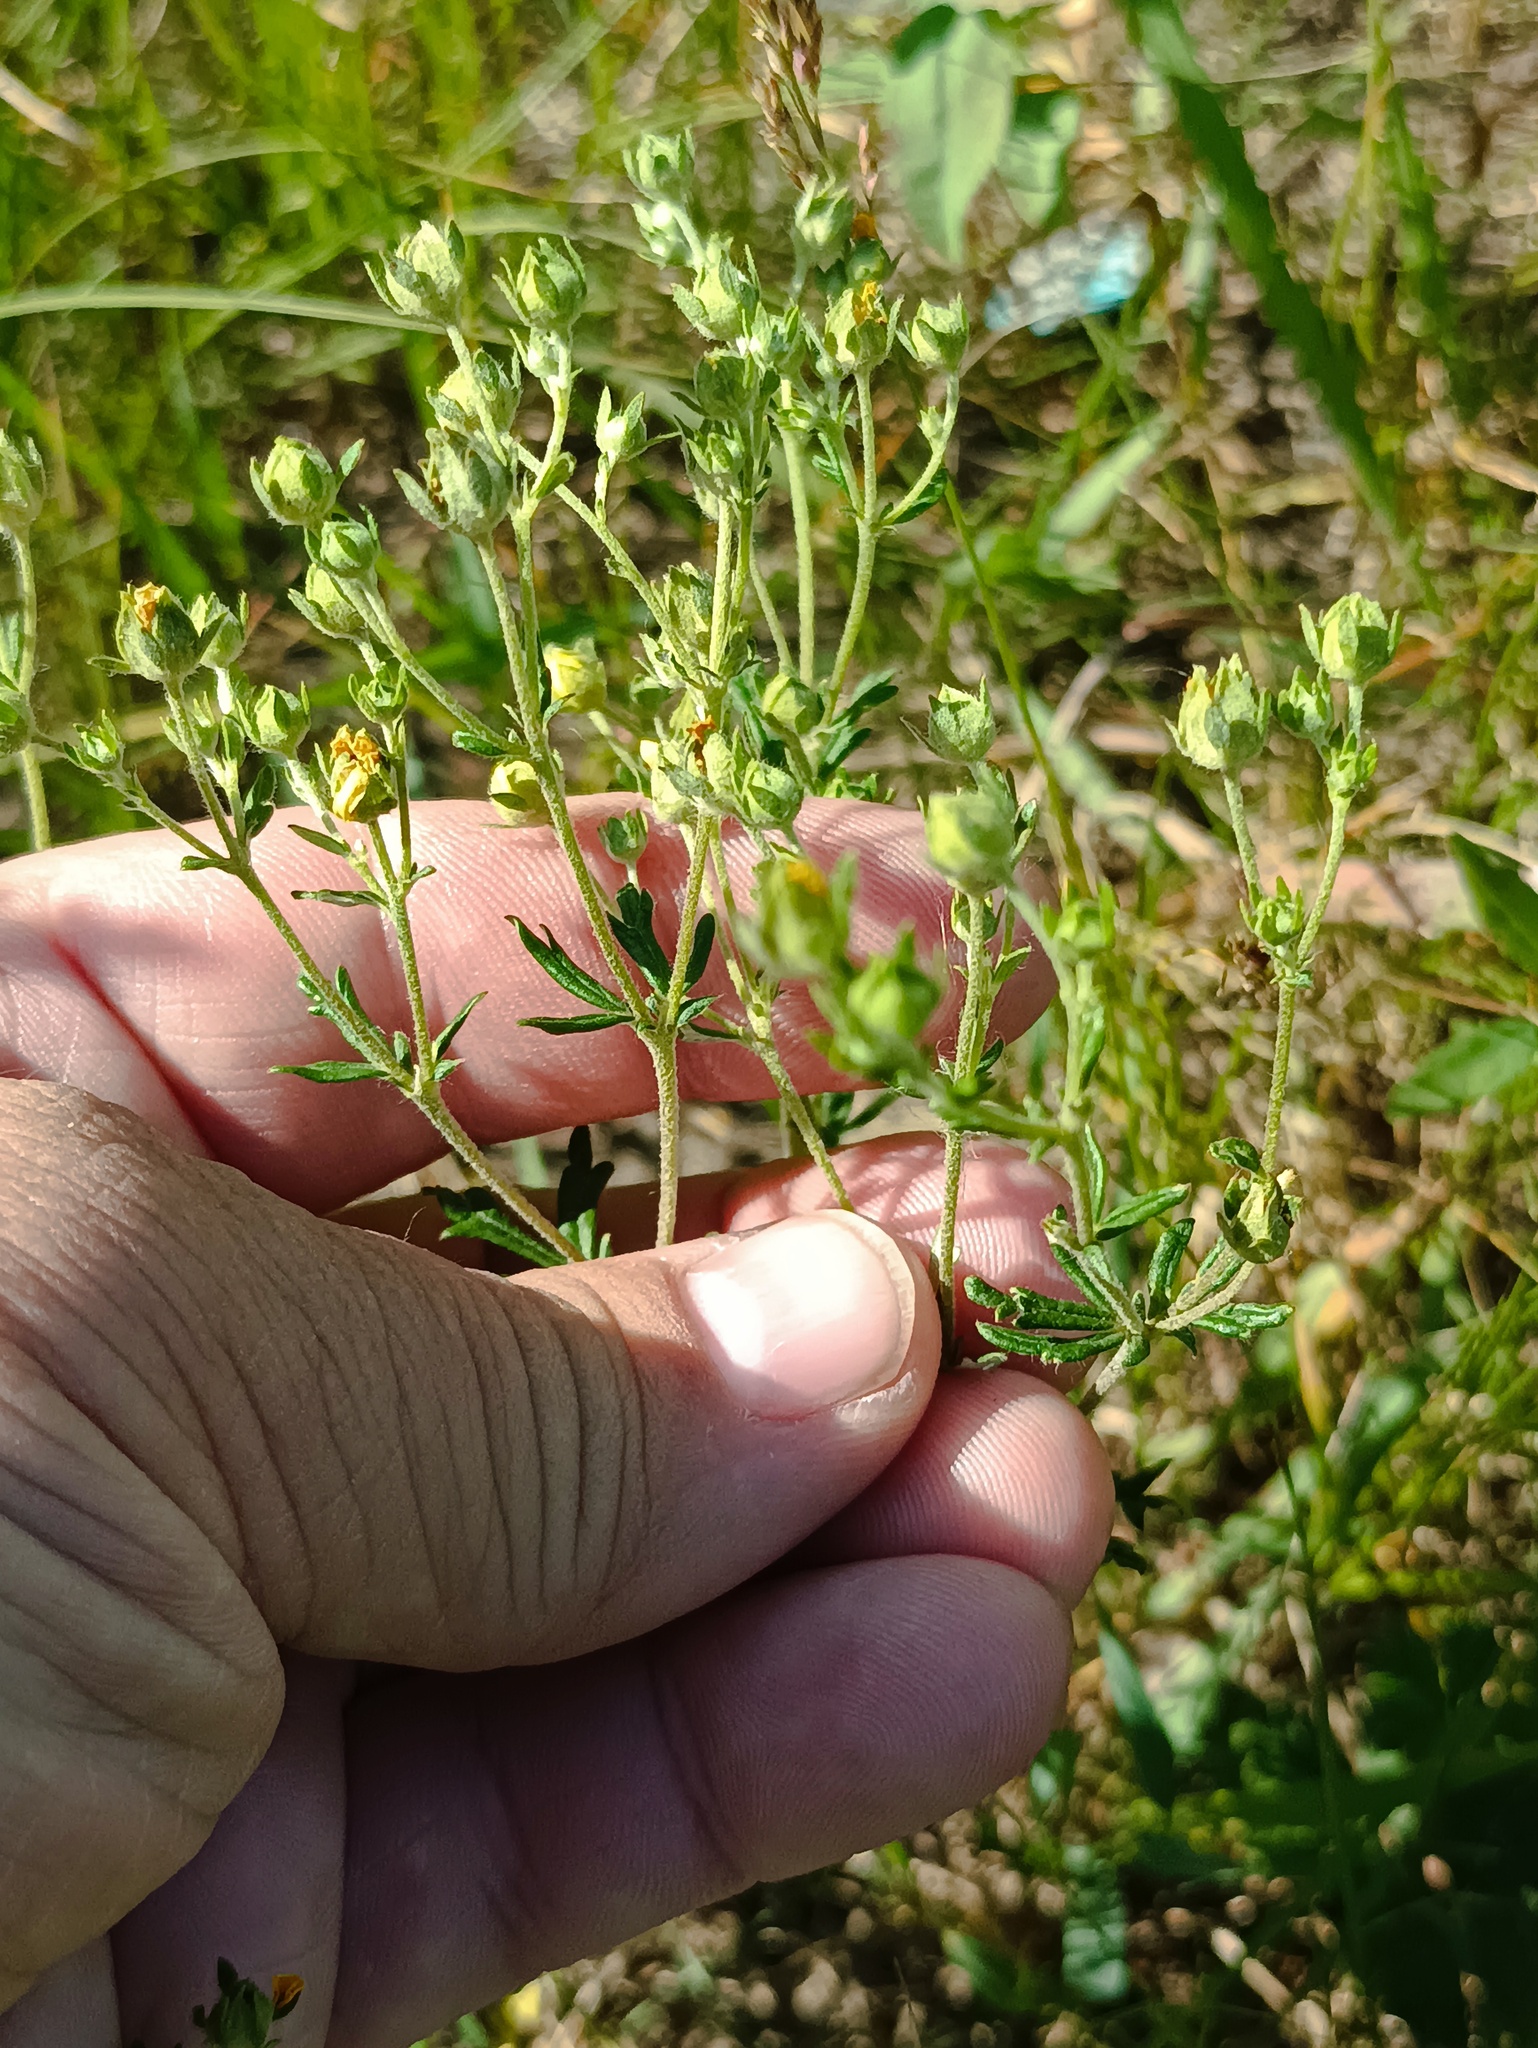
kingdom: Plantae
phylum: Tracheophyta
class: Magnoliopsida
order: Rosales
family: Rosaceae
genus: Potentilla
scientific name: Potentilla argentea
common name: Hoary cinquefoil
